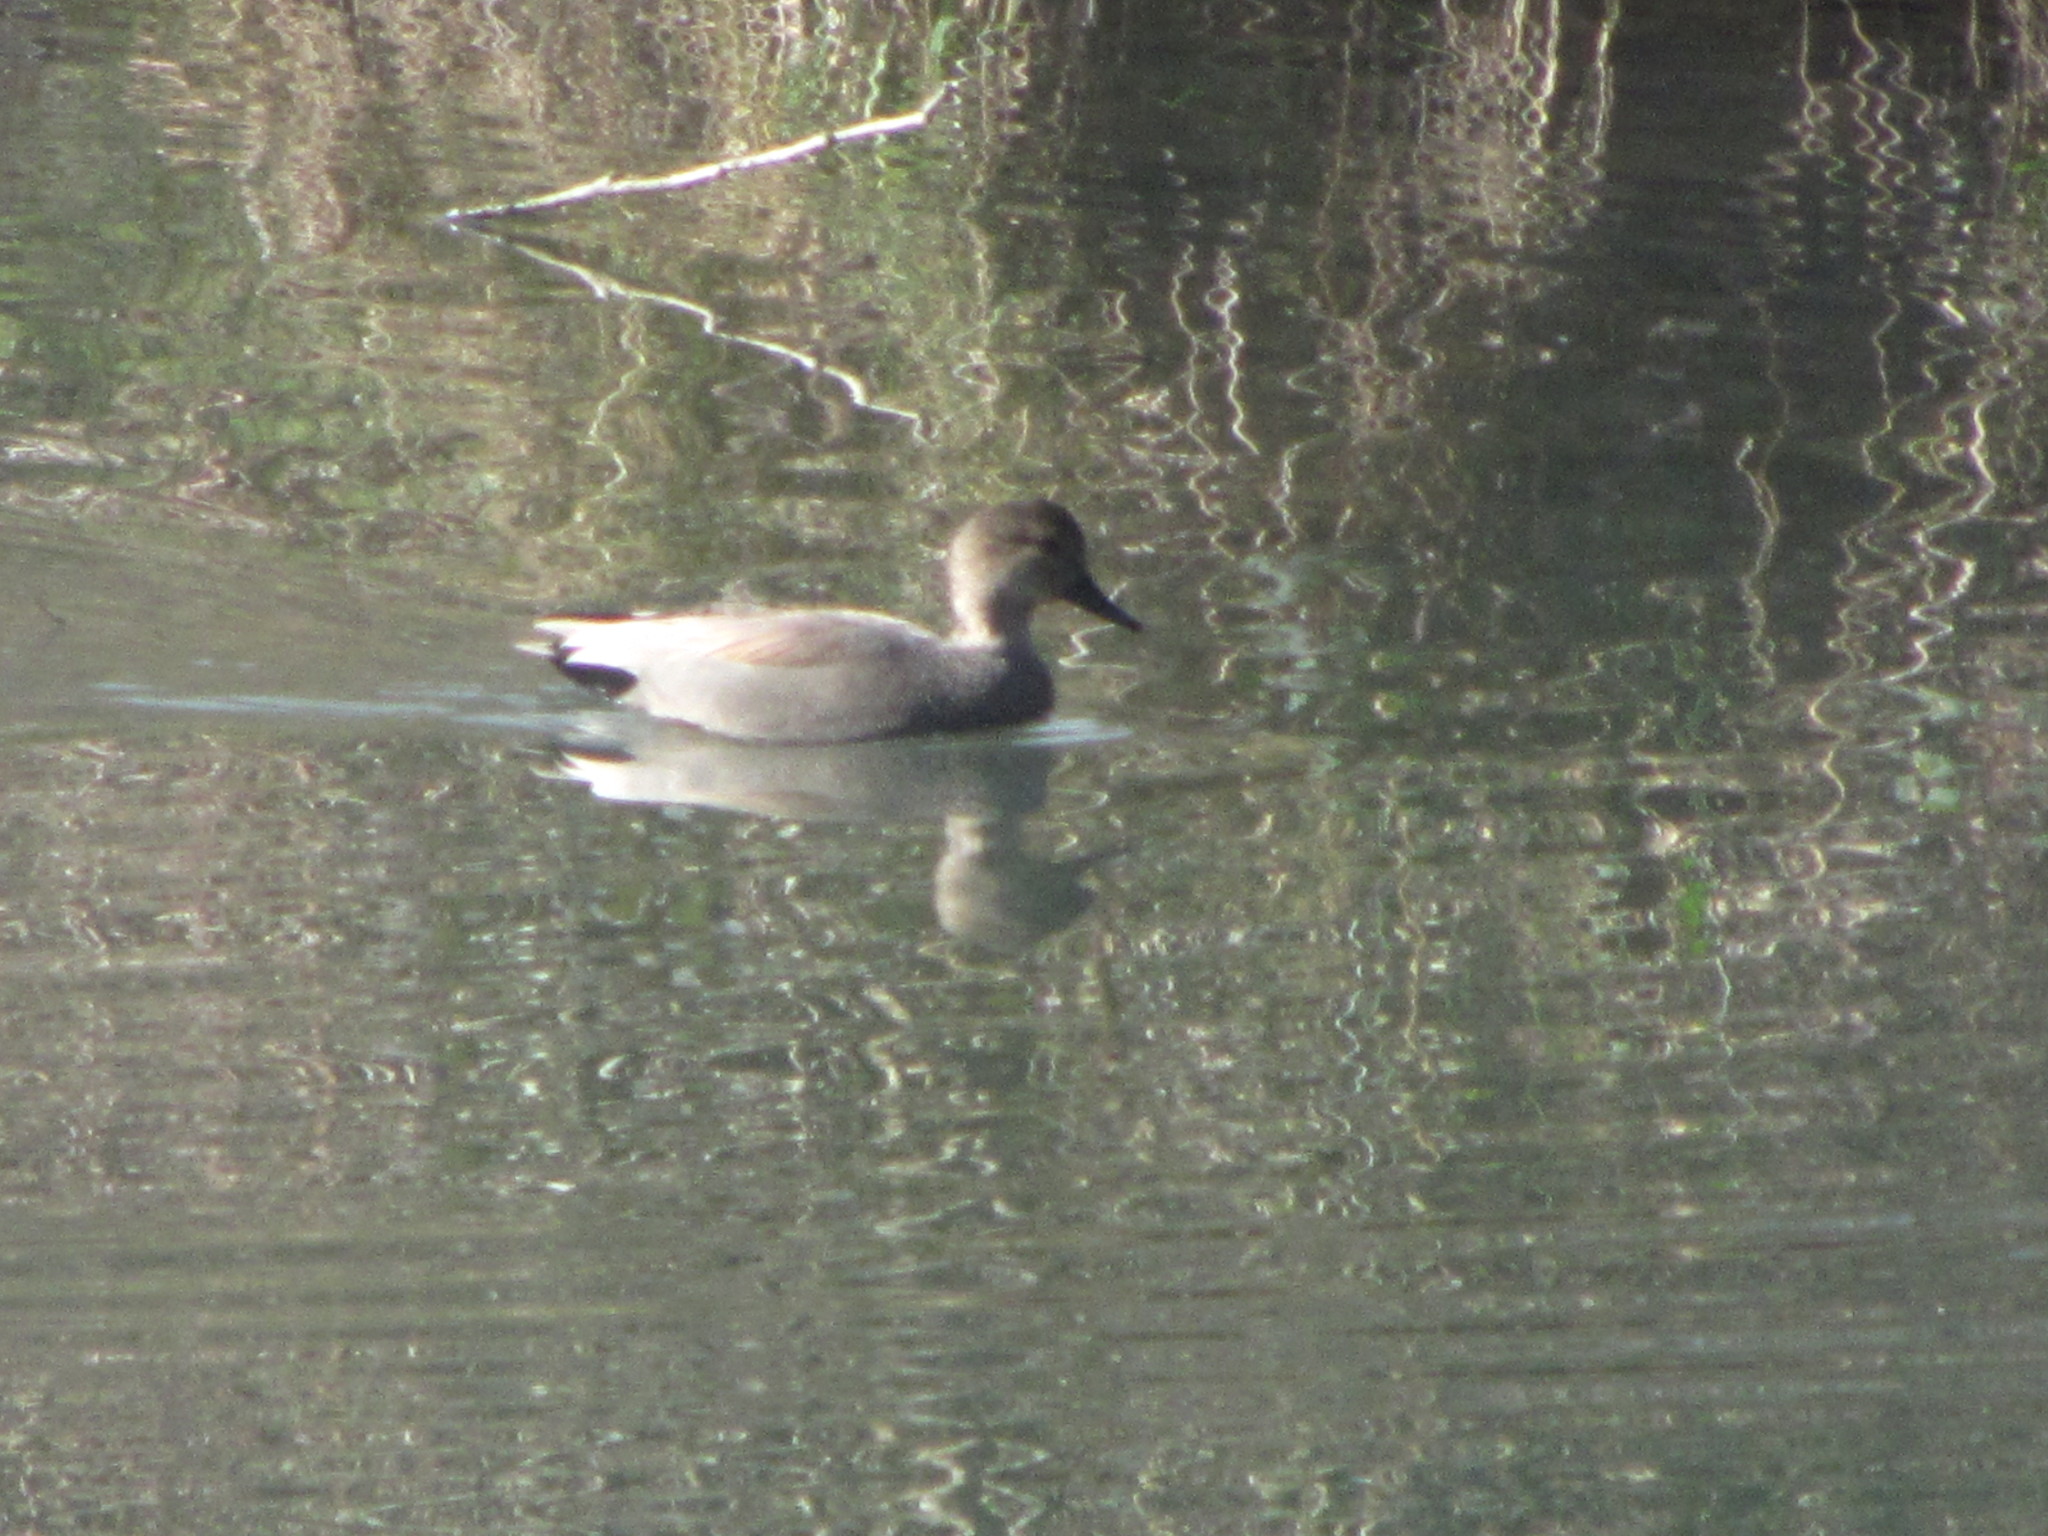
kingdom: Animalia
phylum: Chordata
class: Aves
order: Anseriformes
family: Anatidae
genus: Mareca
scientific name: Mareca strepera
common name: Gadwall
